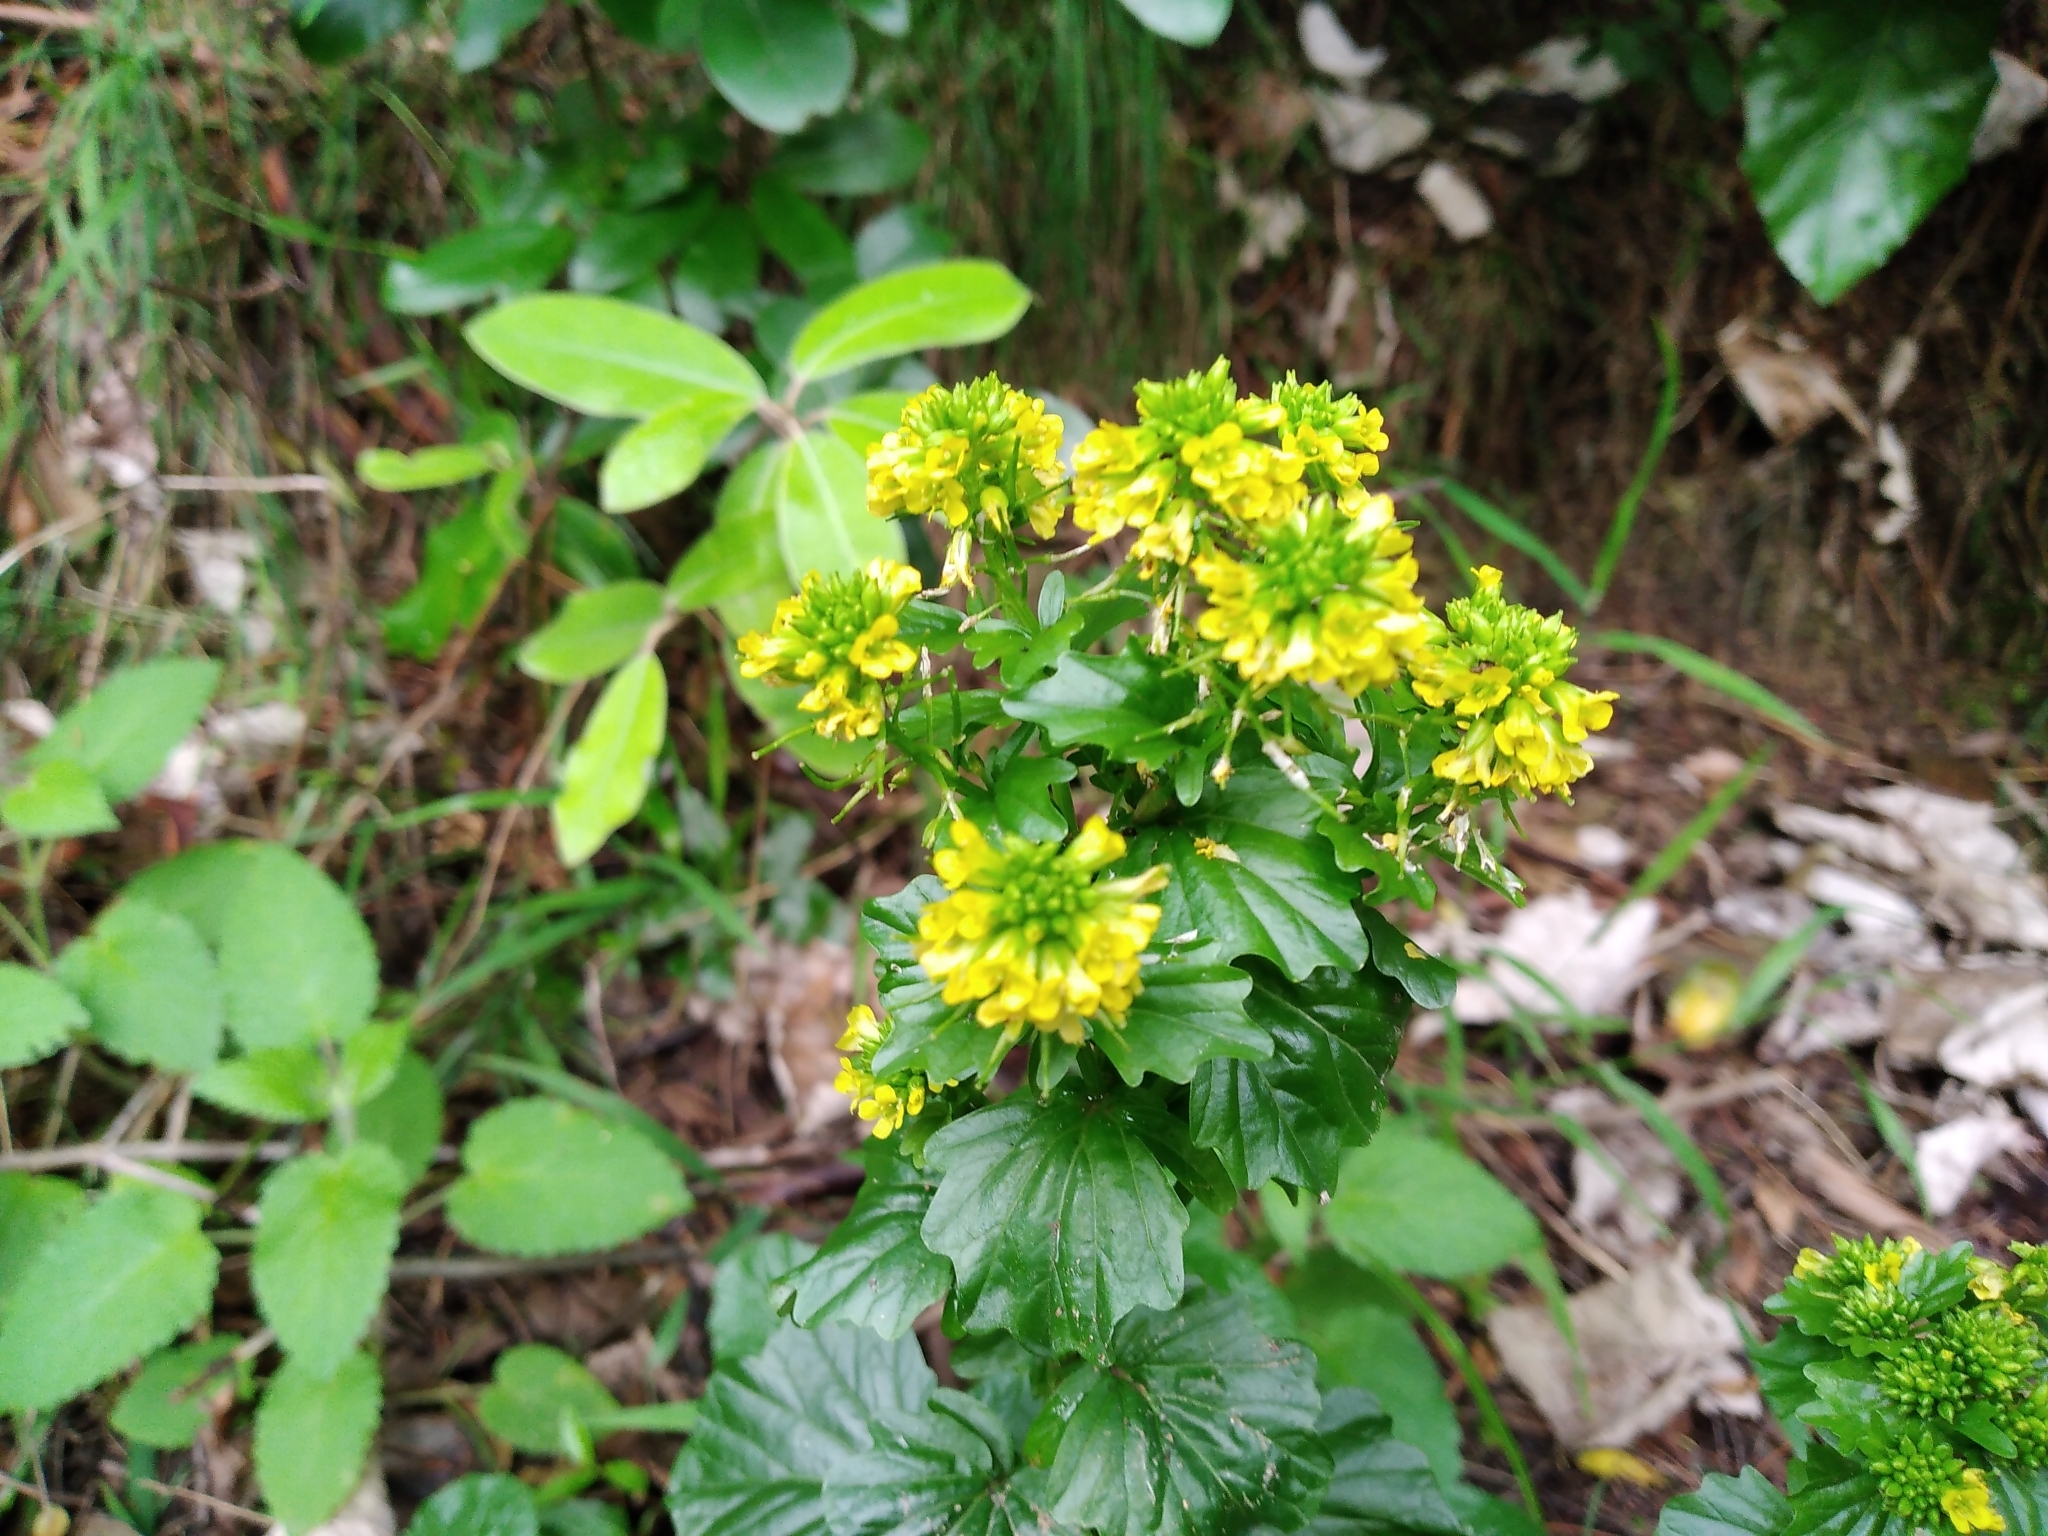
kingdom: Plantae
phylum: Tracheophyta
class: Magnoliopsida
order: Brassicales
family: Brassicaceae
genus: Barbarea
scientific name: Barbarea intermedia
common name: Medium-flowered winter-cress
